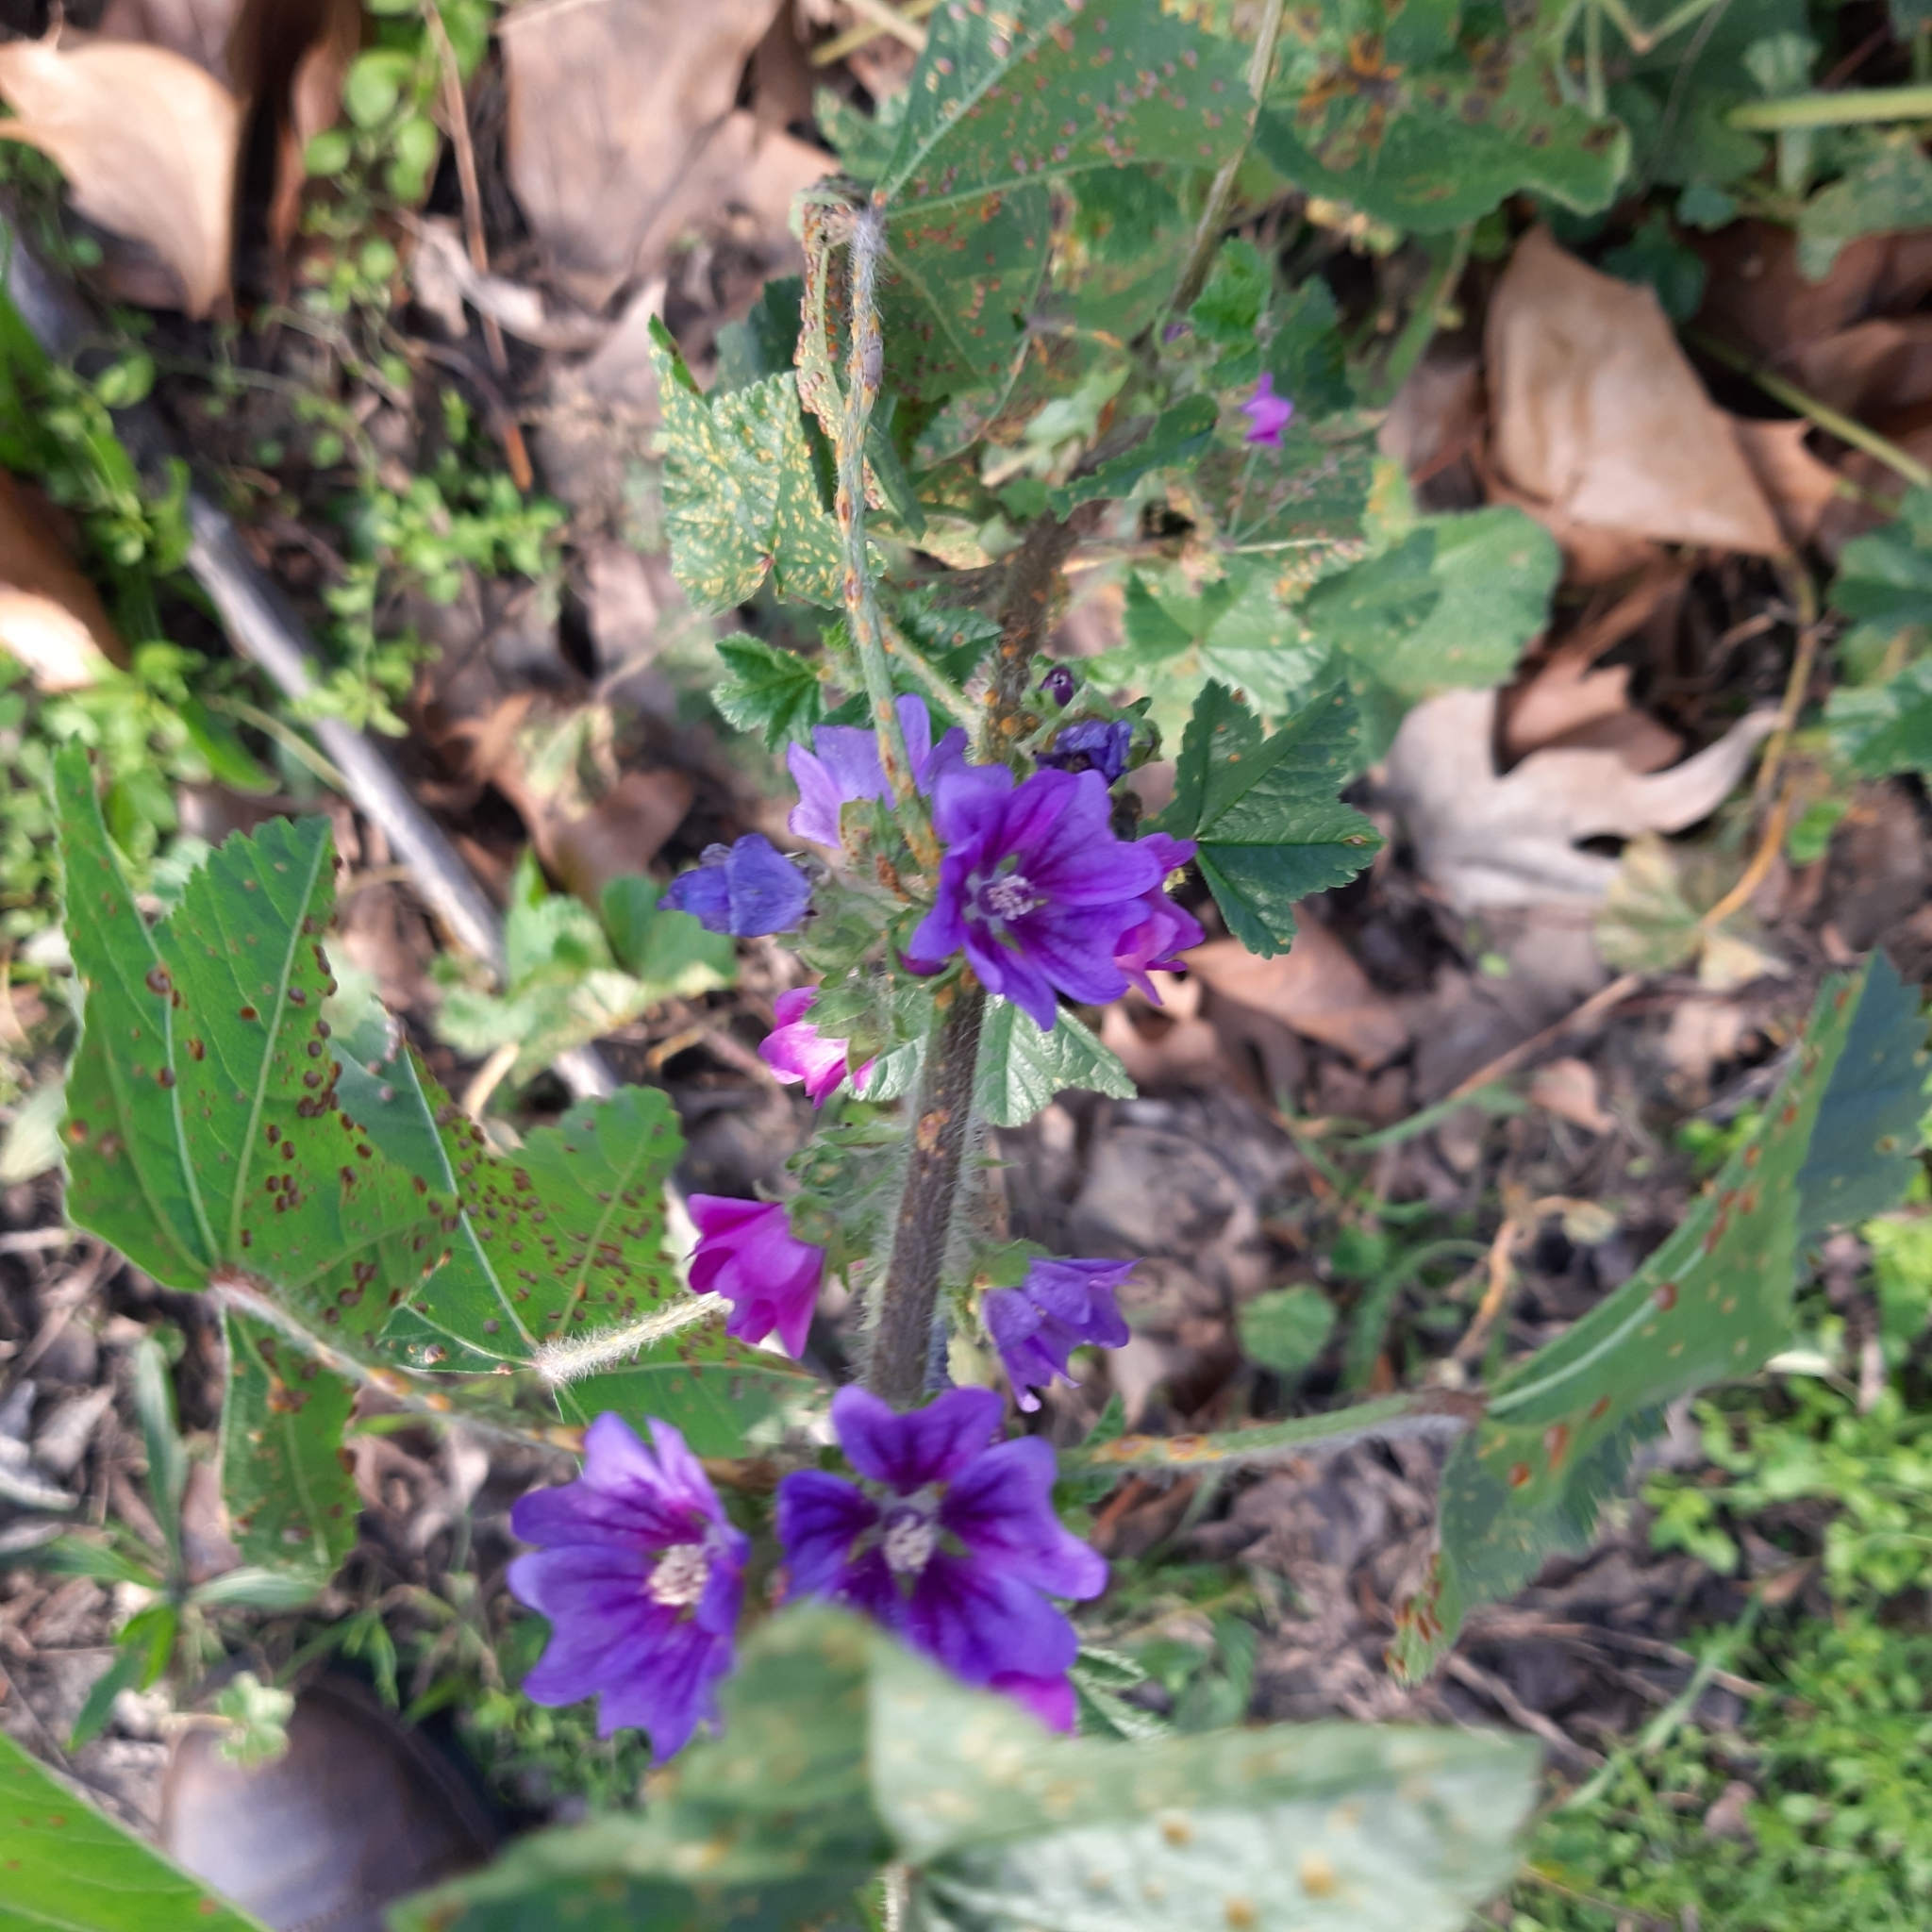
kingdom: Plantae
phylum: Tracheophyta
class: Magnoliopsida
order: Malvales
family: Malvaceae
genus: Malva
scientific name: Malva sylvestris
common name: Common mallow
